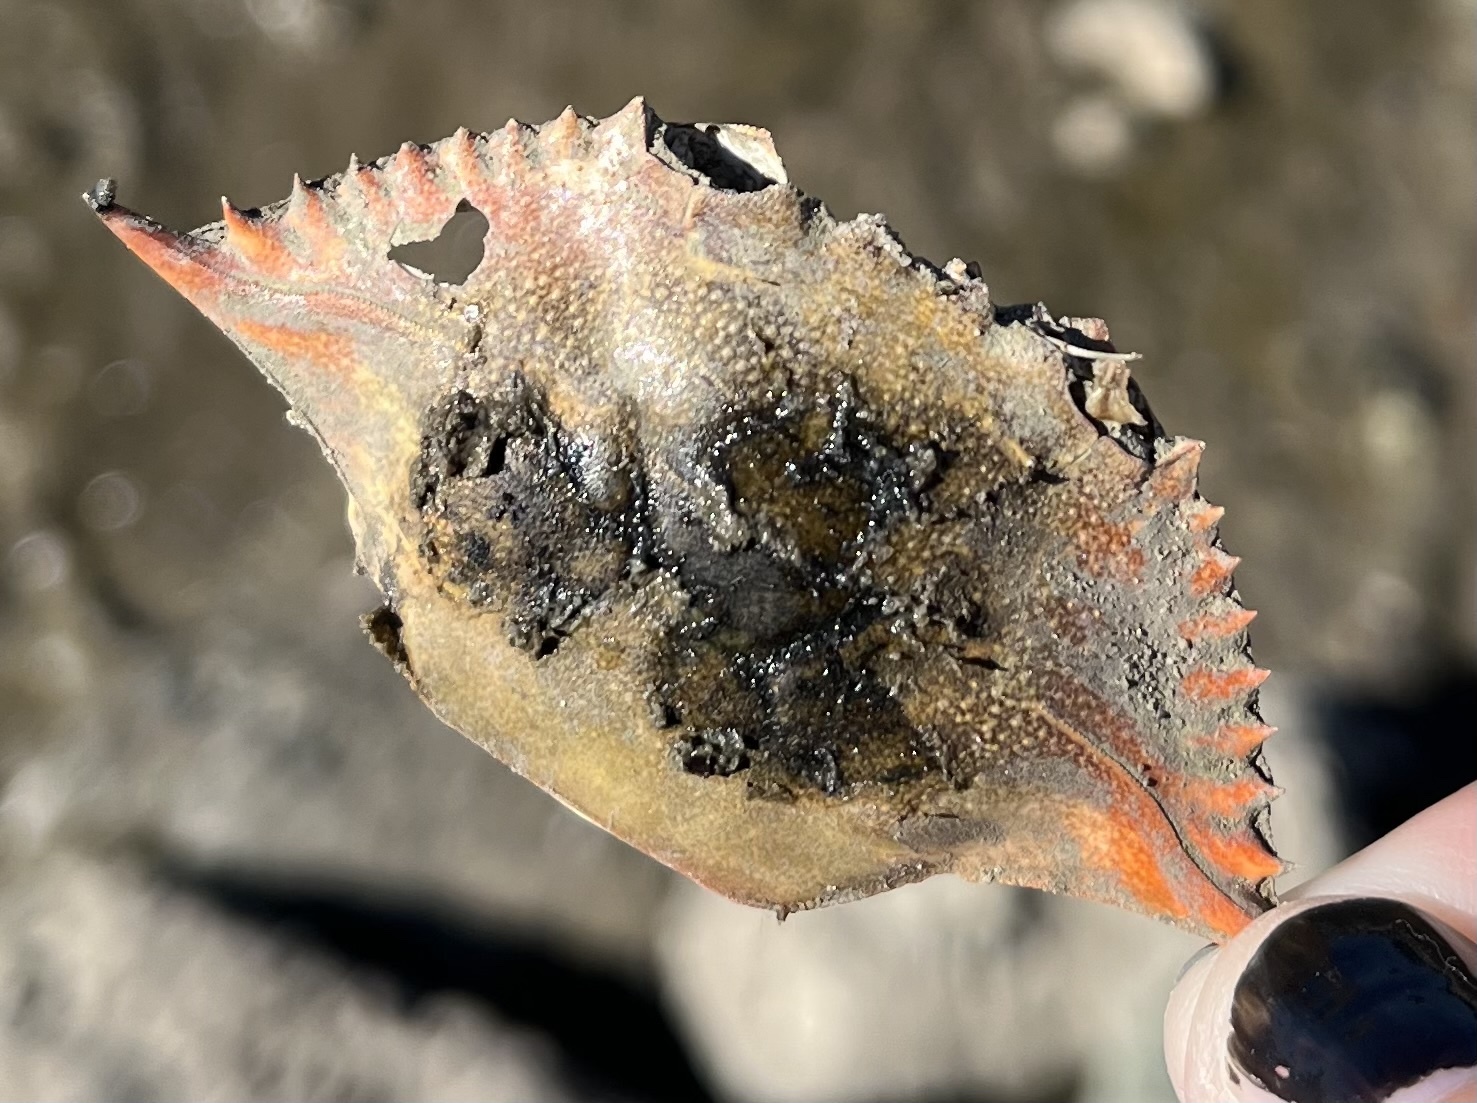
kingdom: Animalia
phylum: Arthropoda
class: Malacostraca
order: Decapoda
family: Portunidae
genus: Callinectes
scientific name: Callinectes sapidus
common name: Blue crab
